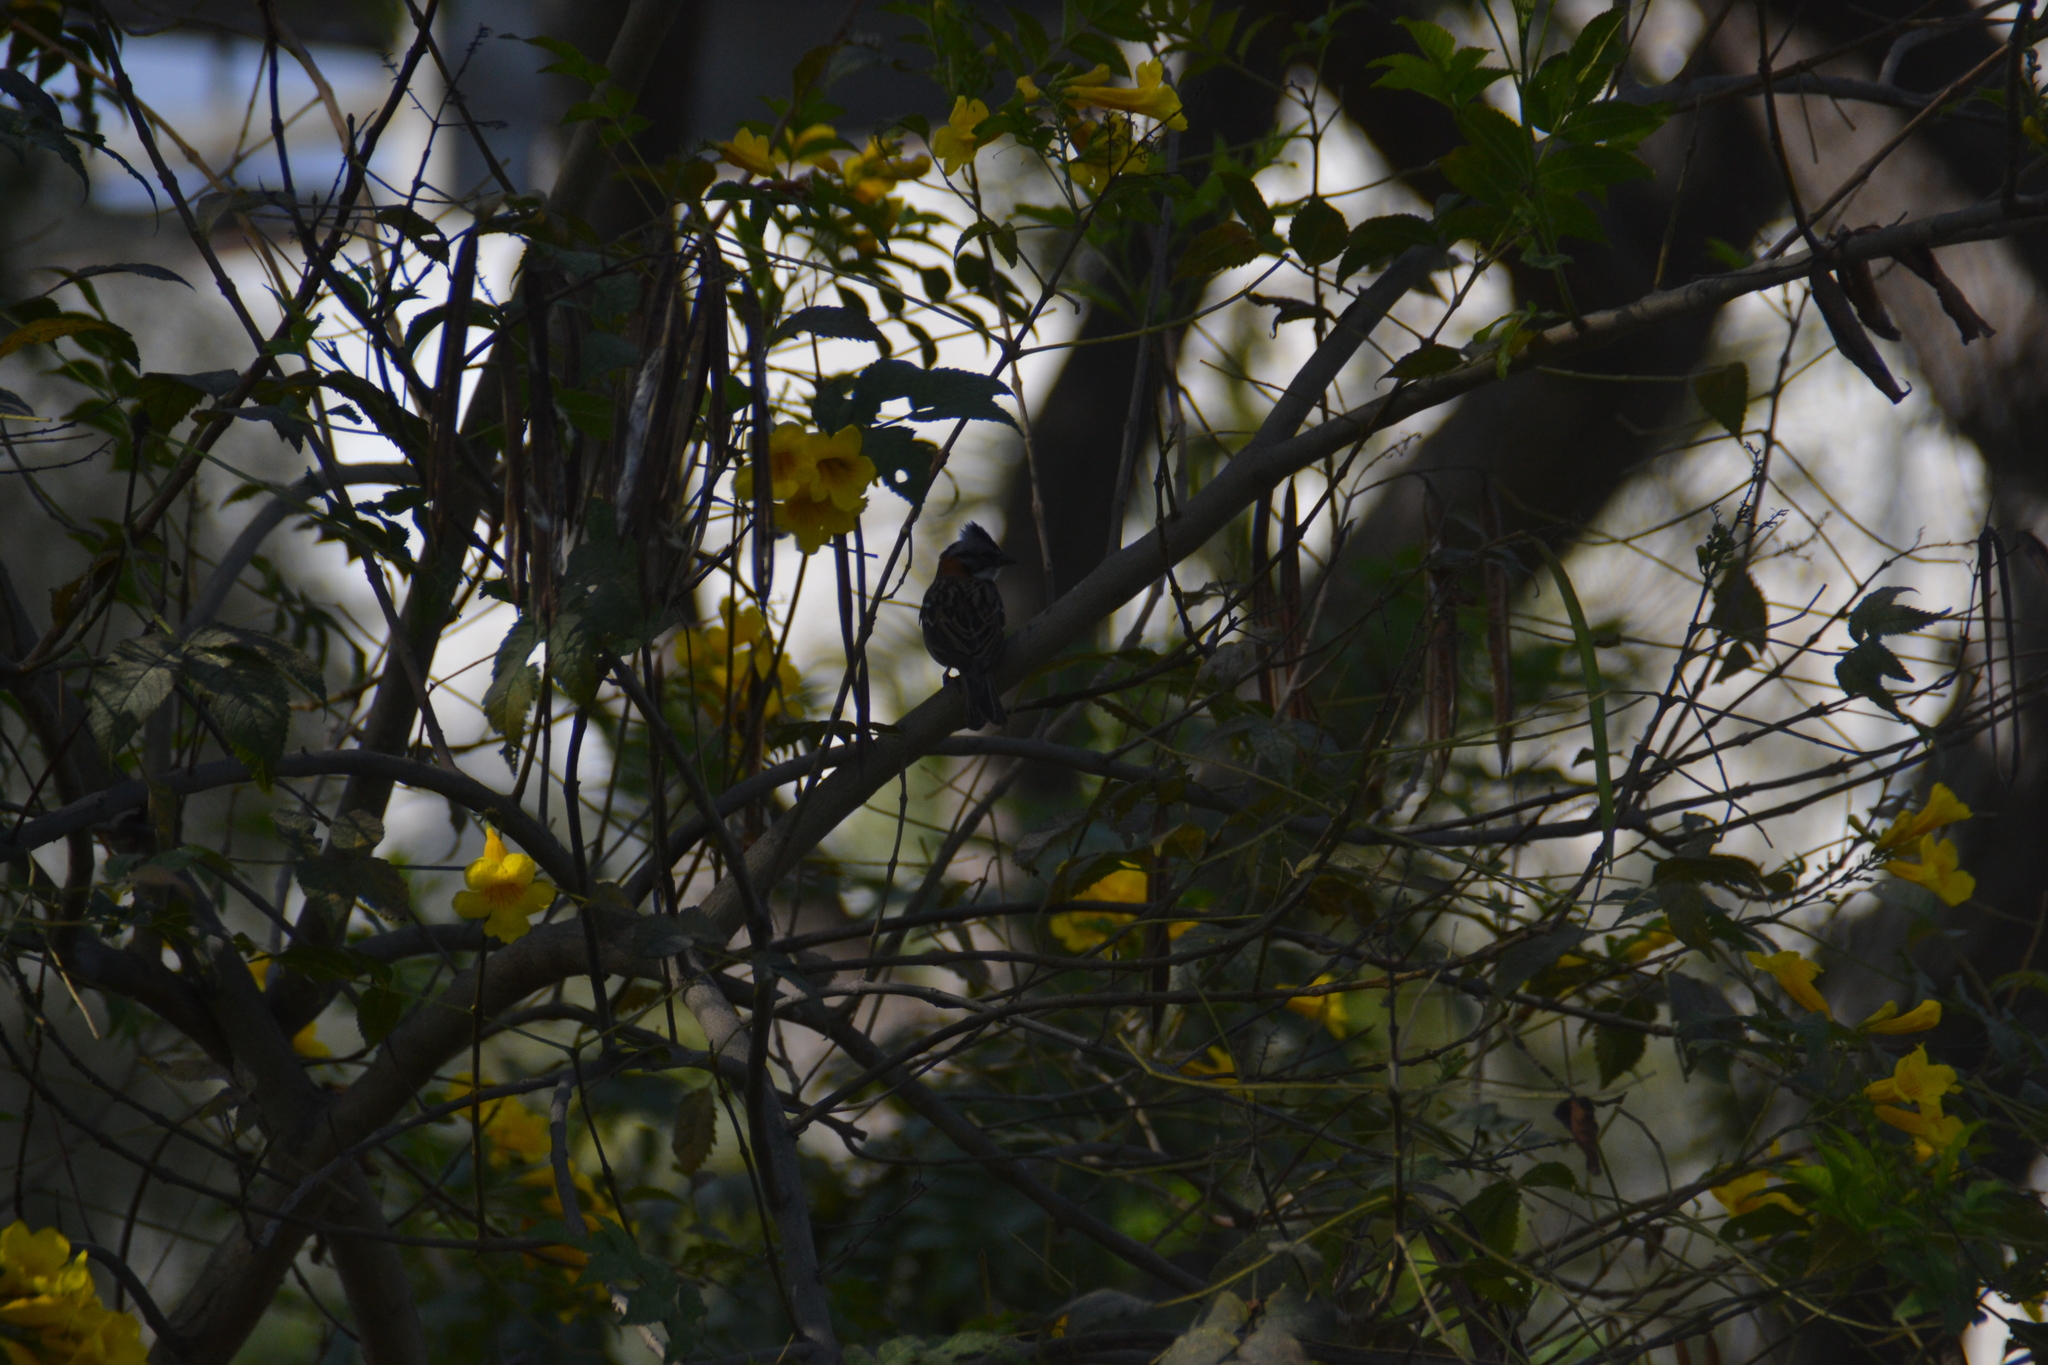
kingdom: Animalia
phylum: Chordata
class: Aves
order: Passeriformes
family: Passerellidae
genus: Zonotrichia
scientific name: Zonotrichia capensis
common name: Rufous-collared sparrow
